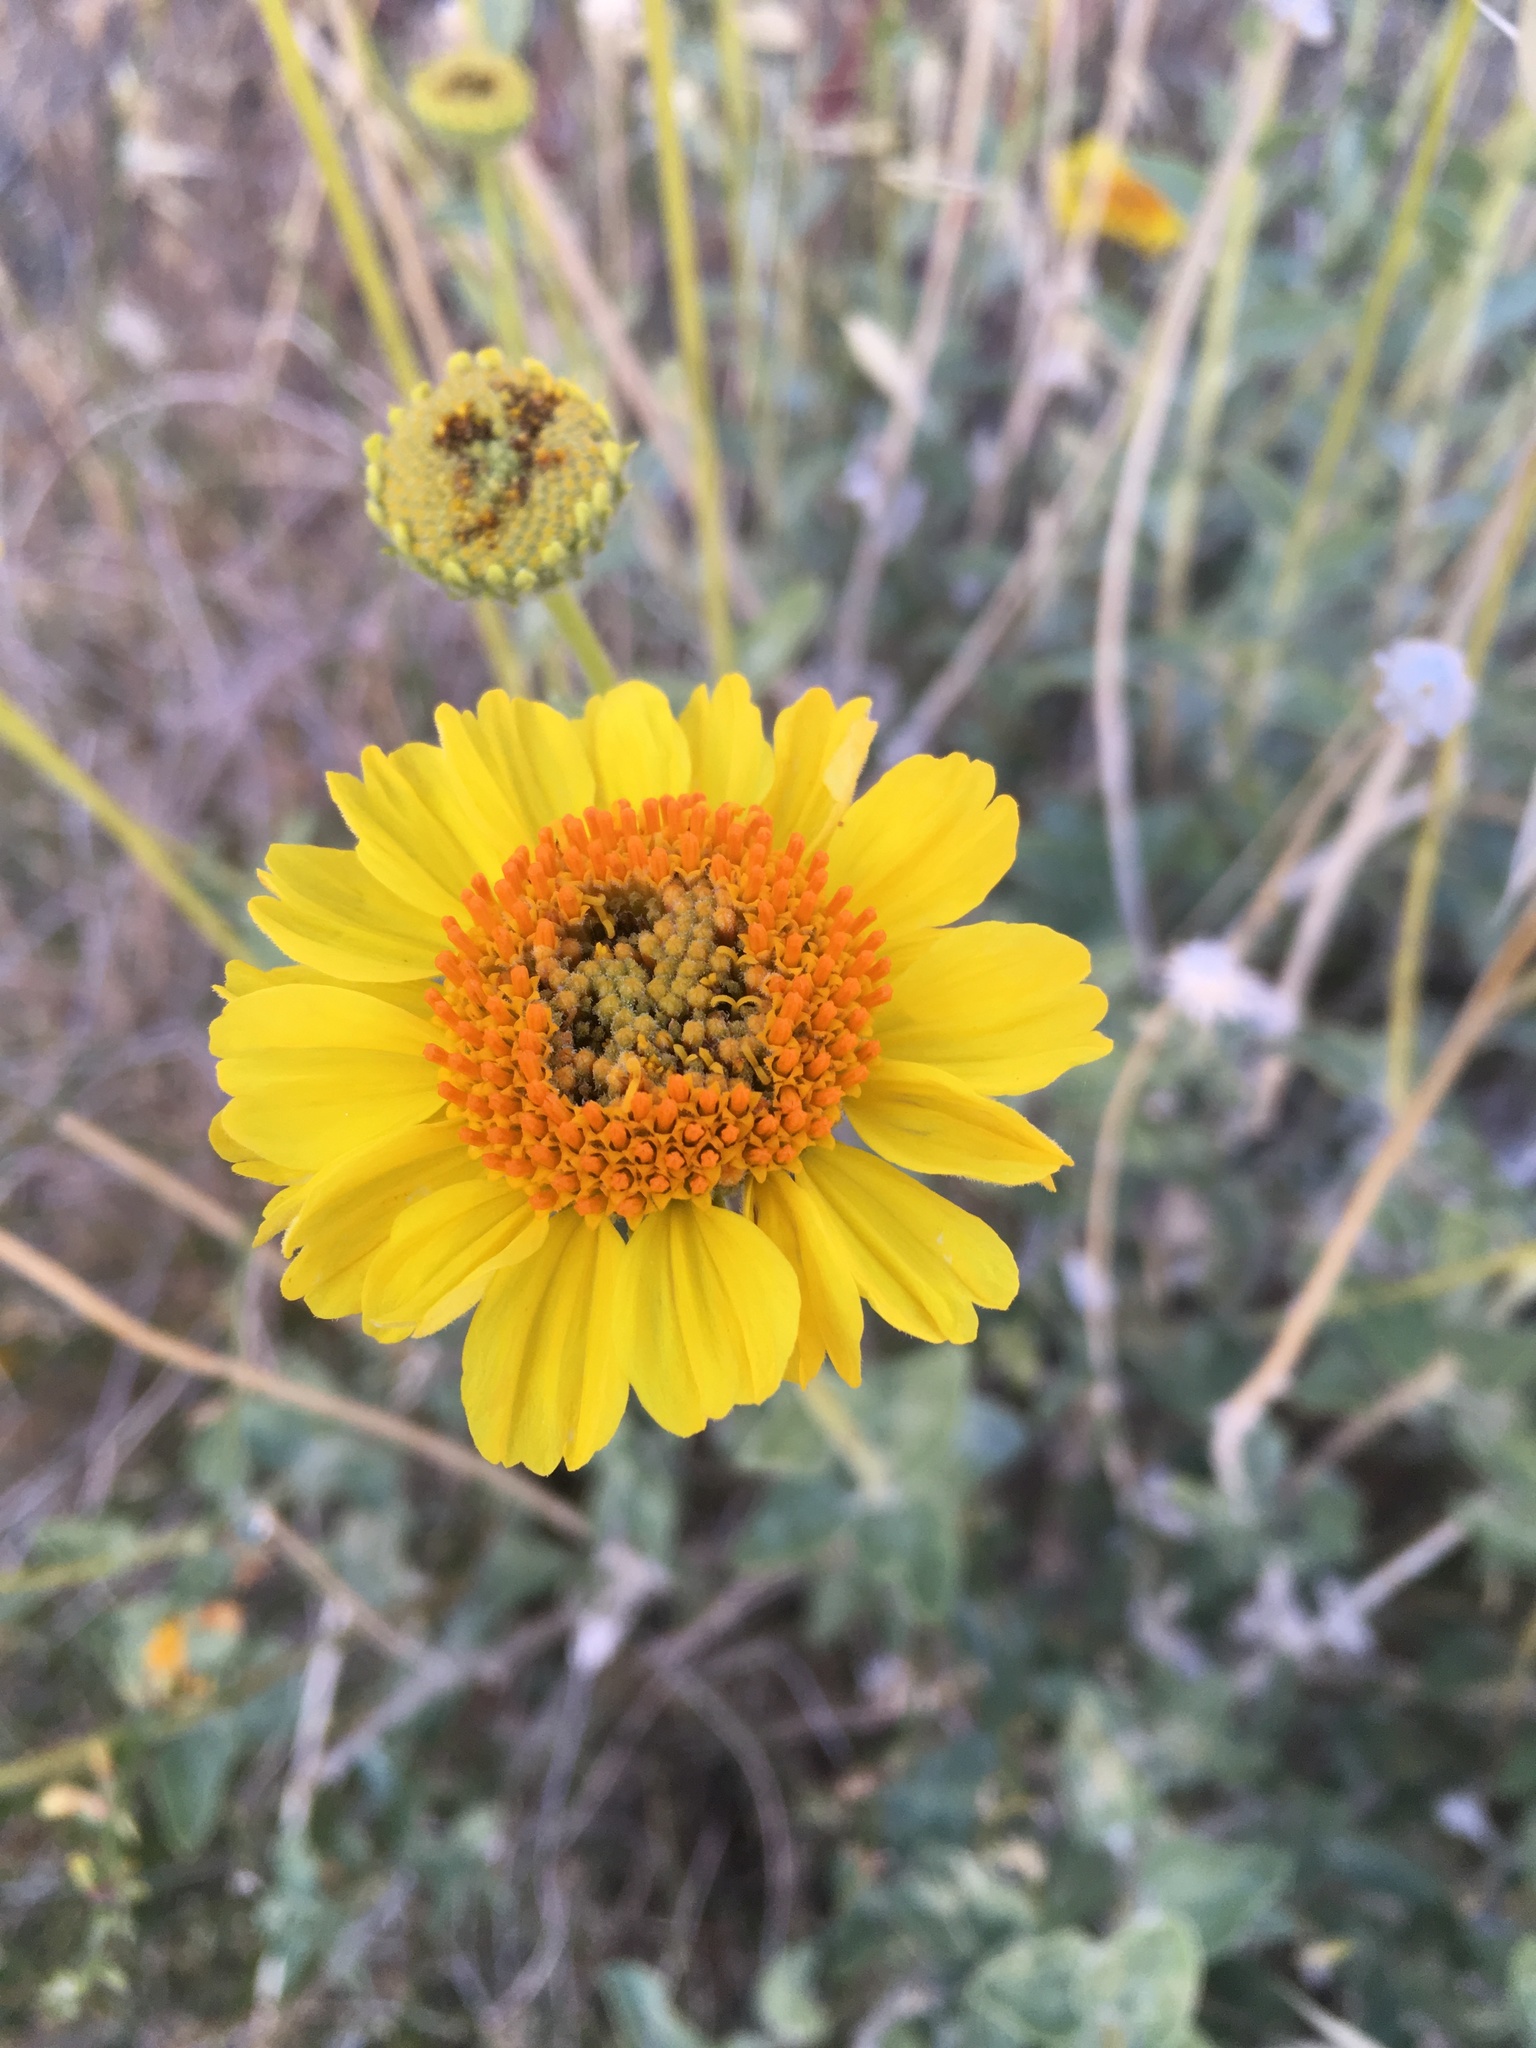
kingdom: Plantae
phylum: Tracheophyta
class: Magnoliopsida
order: Asterales
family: Asteraceae
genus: Encelia
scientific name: Encelia actoni
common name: Acton encelia
